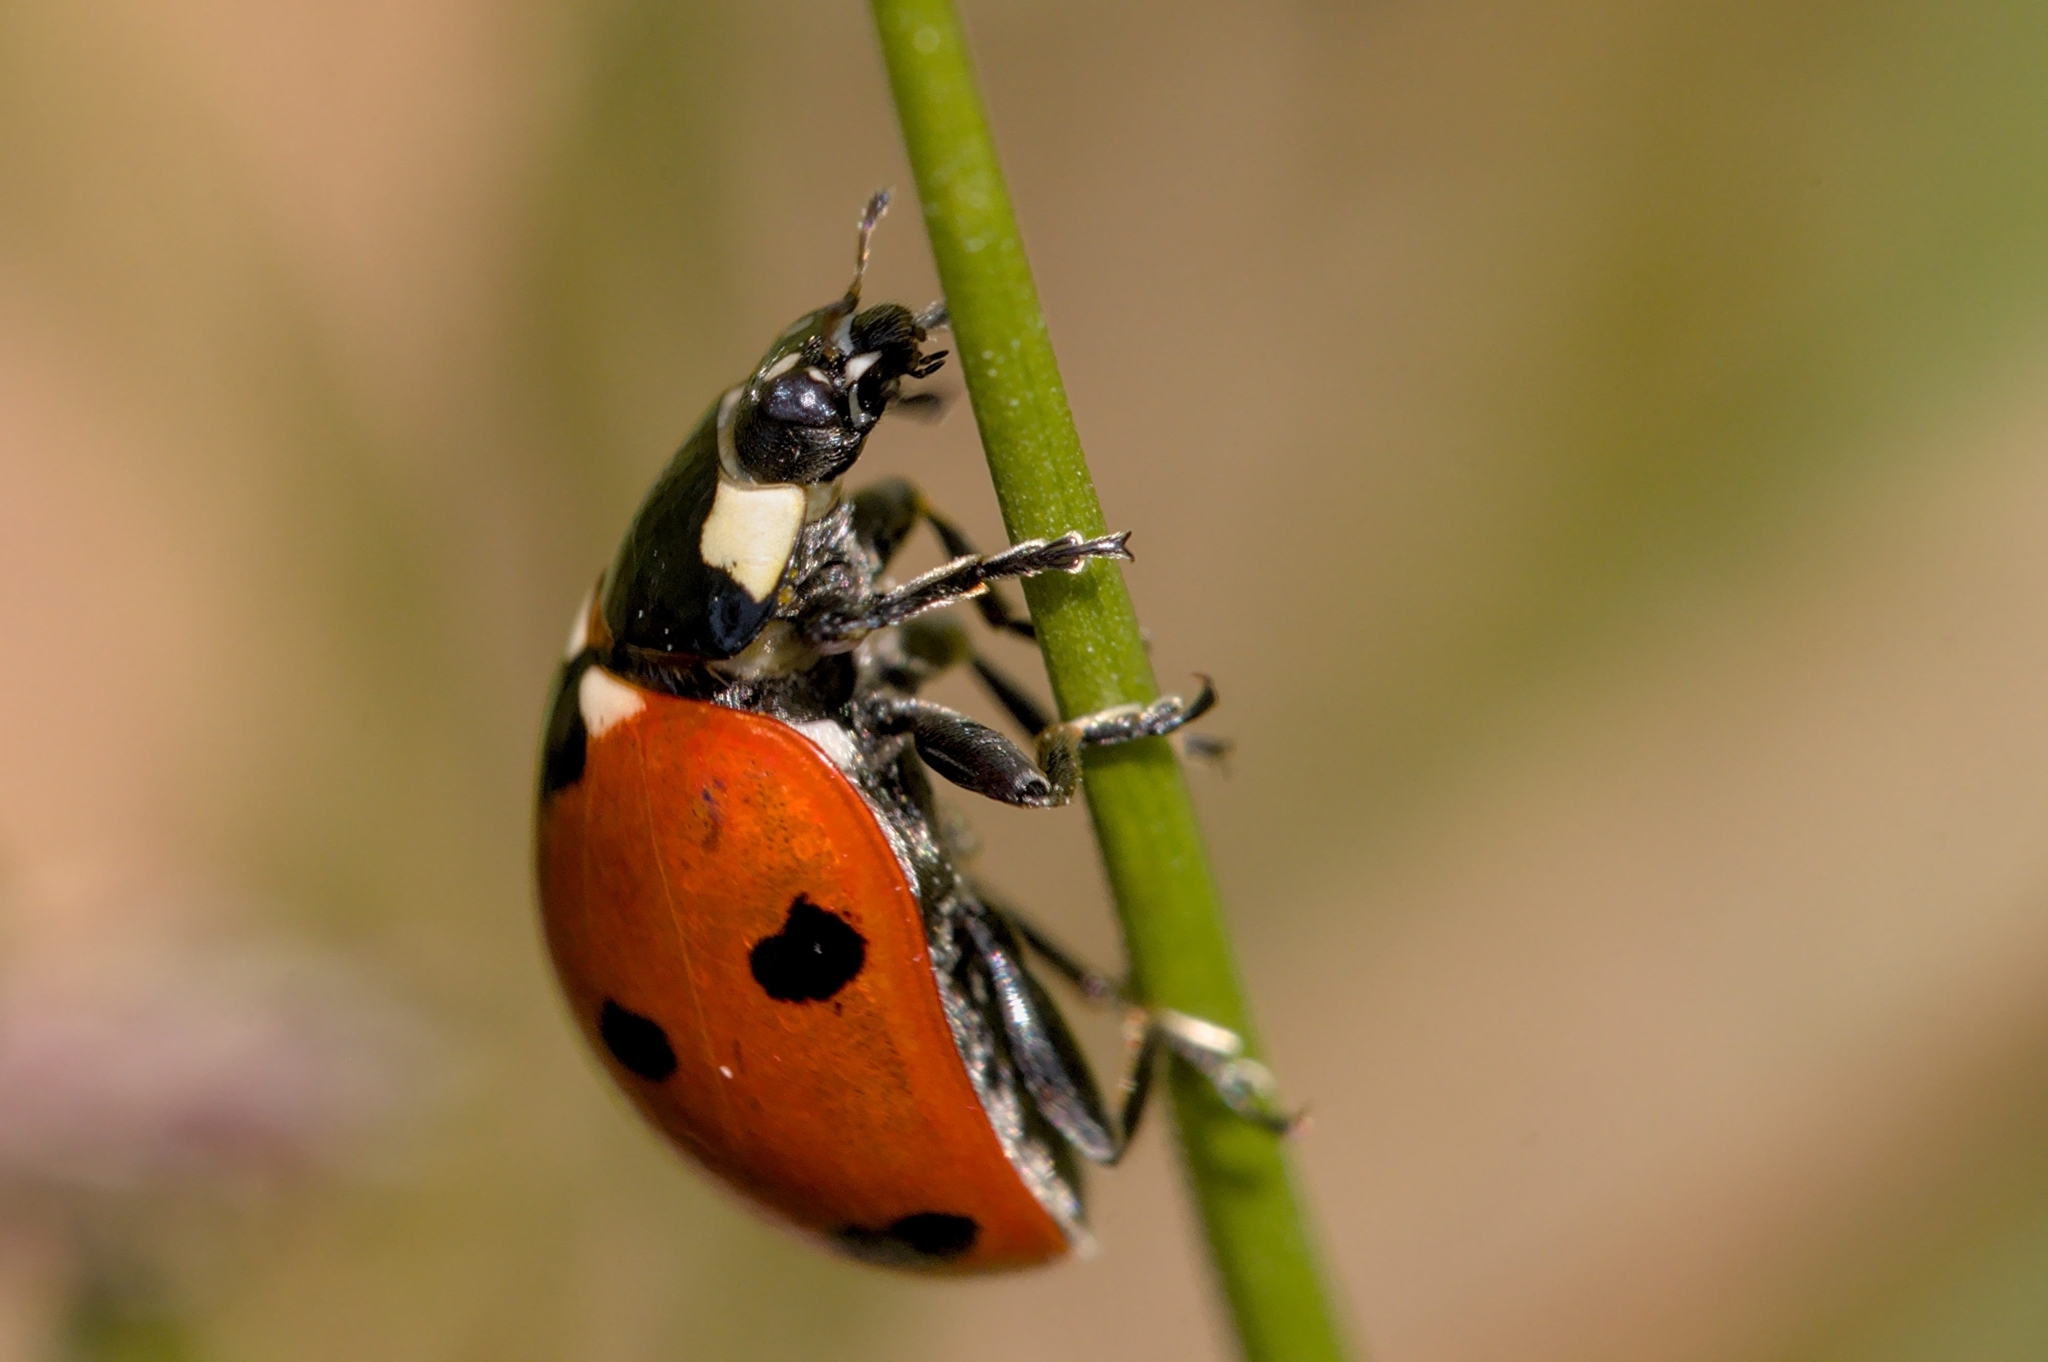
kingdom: Animalia
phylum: Arthropoda
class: Insecta
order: Coleoptera
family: Coccinellidae
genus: Coccinella
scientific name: Coccinella septempunctata
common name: Sevenspotted lady beetle
